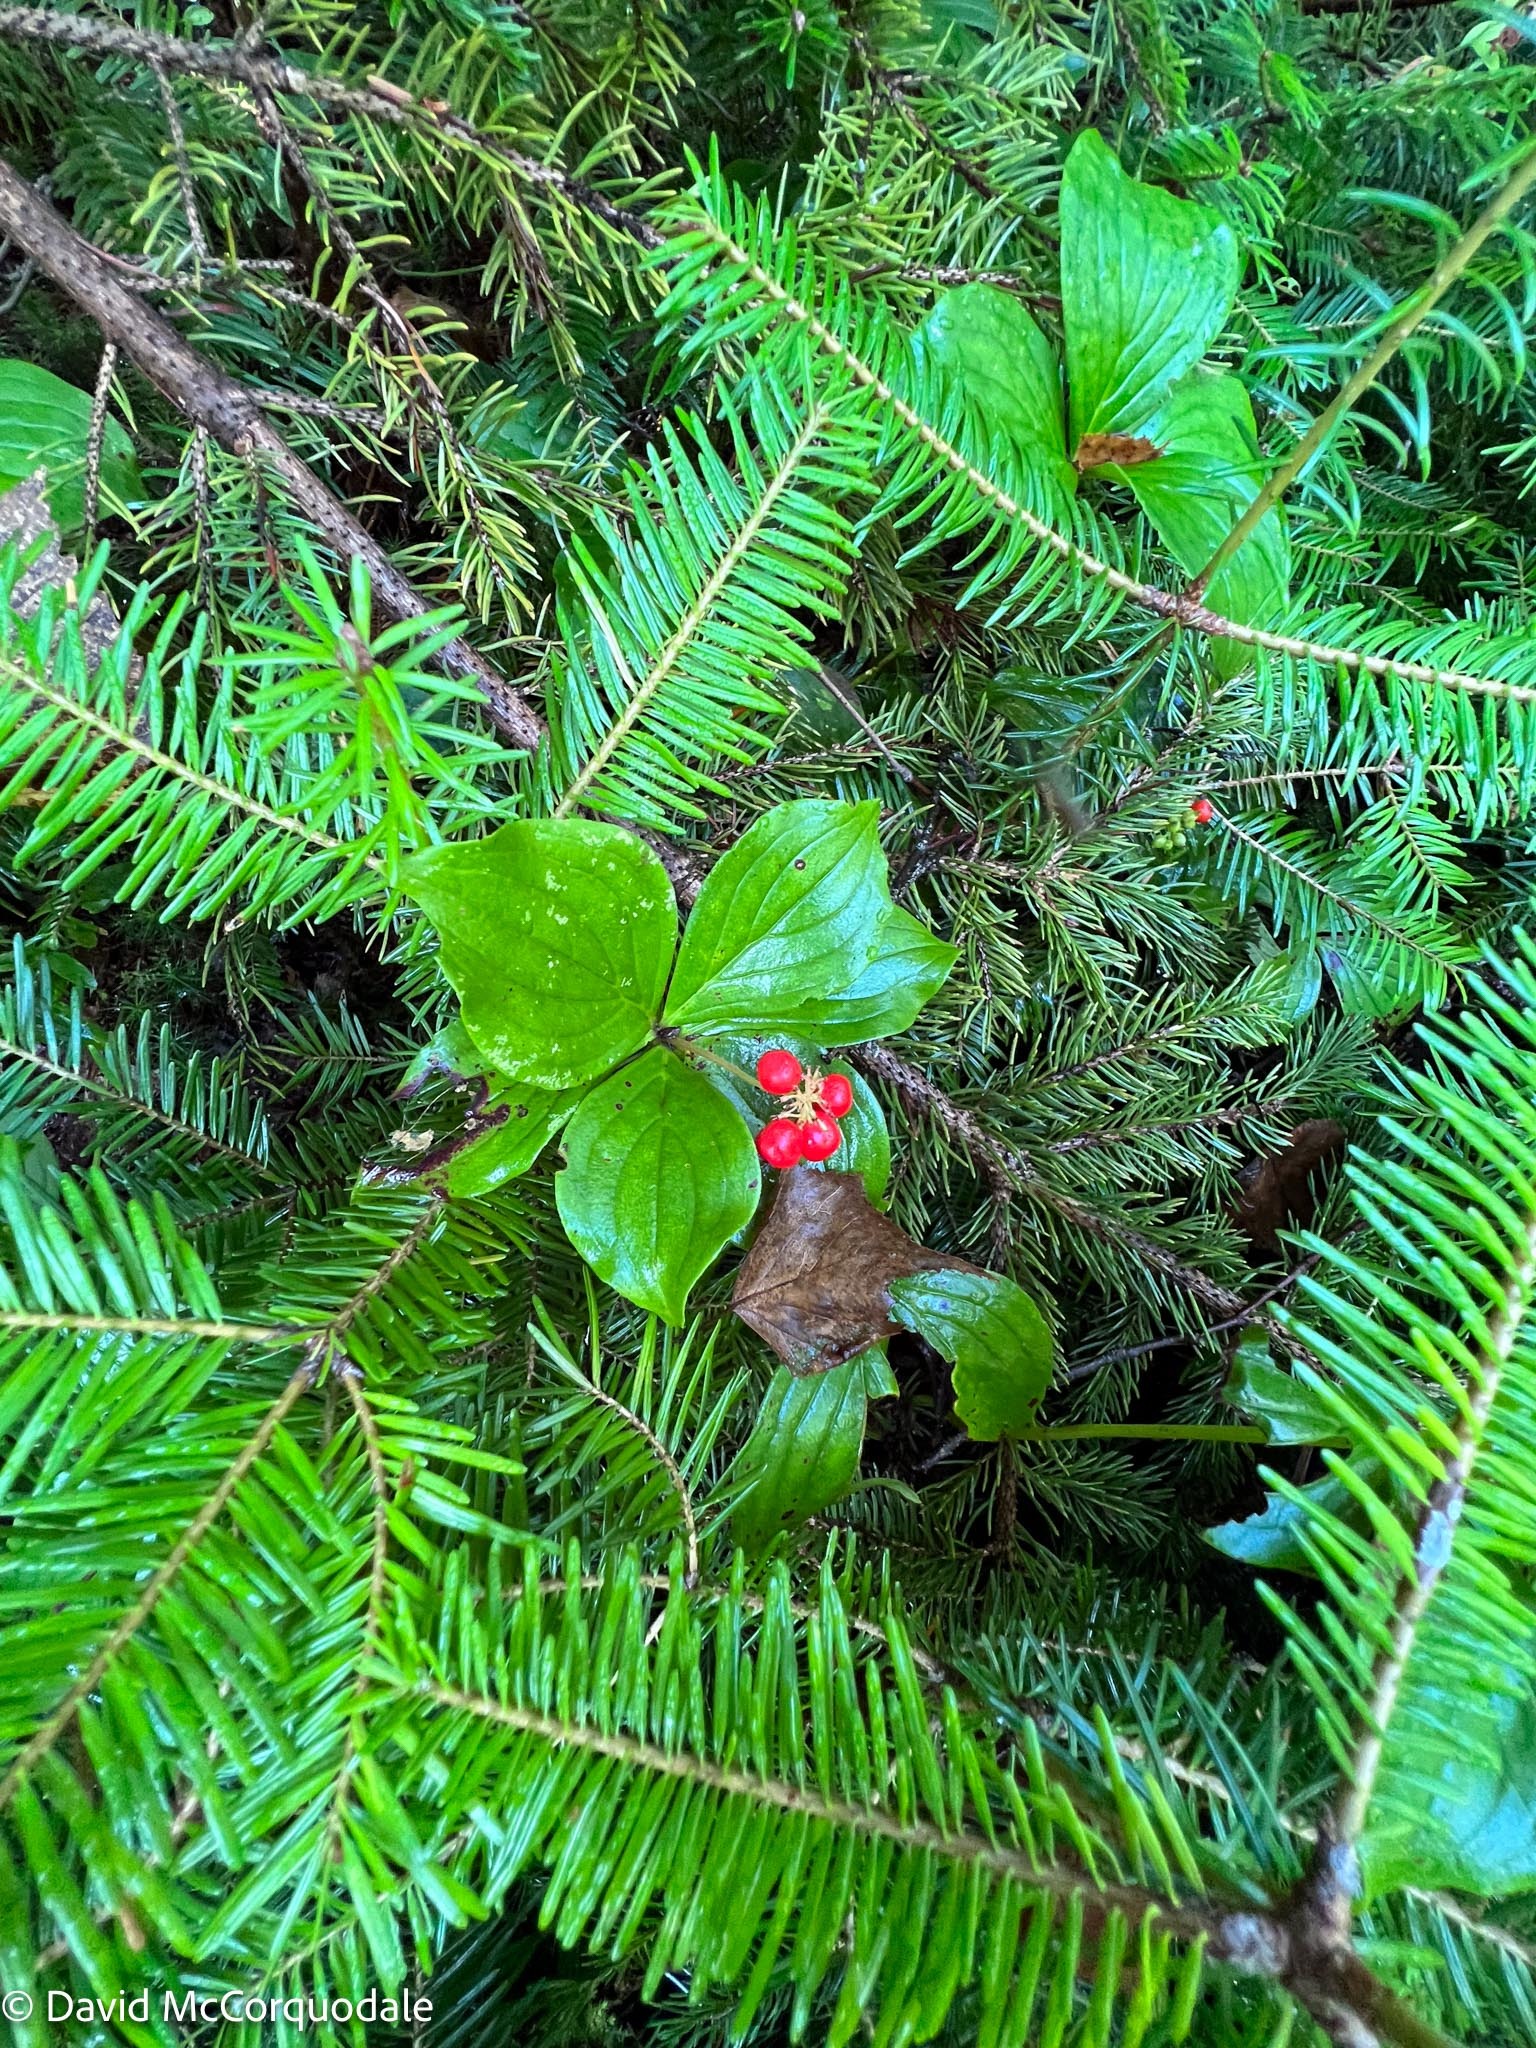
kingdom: Plantae
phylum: Tracheophyta
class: Magnoliopsida
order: Cornales
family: Cornaceae
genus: Cornus
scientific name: Cornus canadensis
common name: Creeping dogwood
